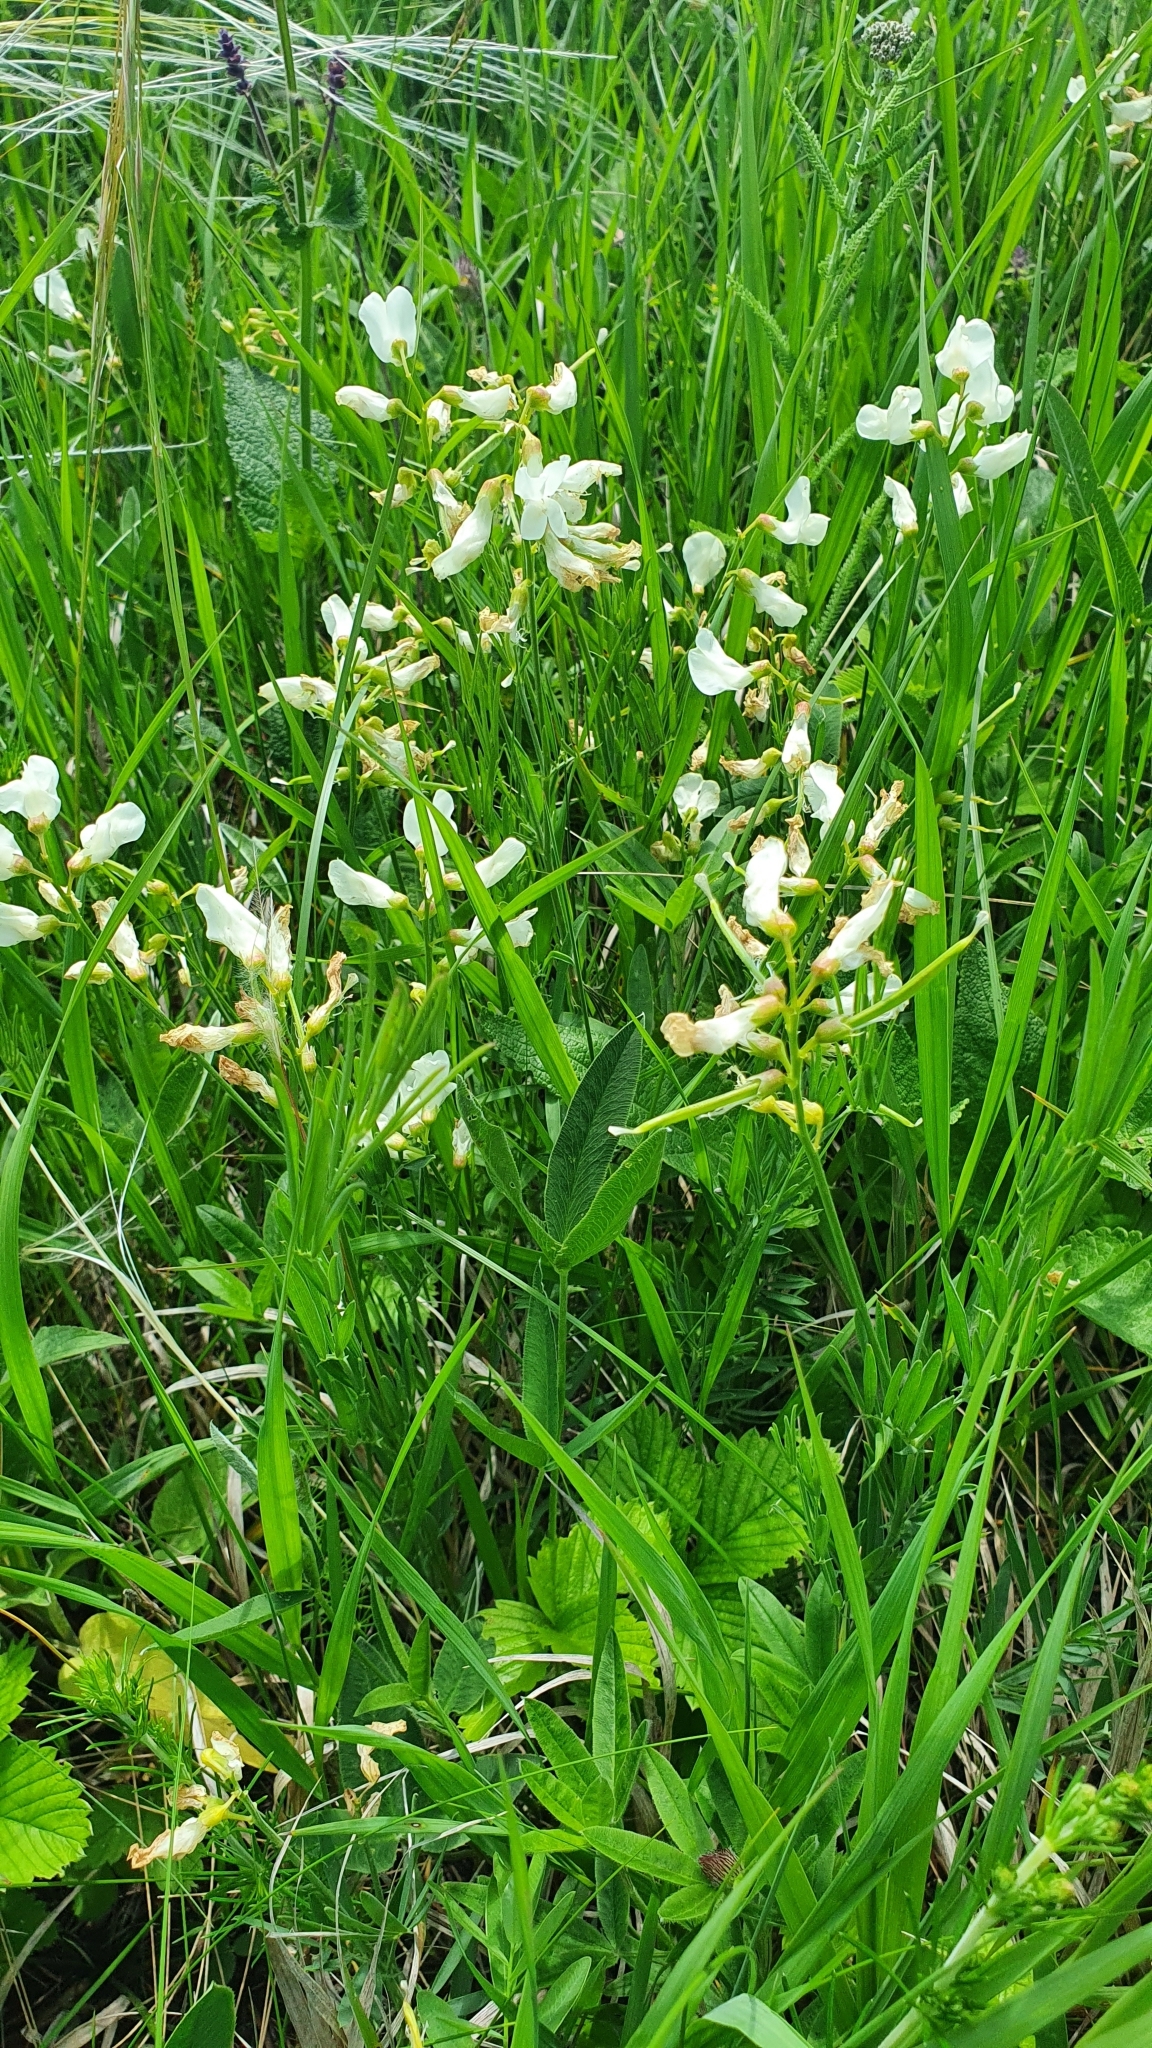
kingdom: Plantae
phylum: Tracheophyta
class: Magnoliopsida
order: Fabales
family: Fabaceae
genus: Lathyrus
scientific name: Lathyrus pallescens
